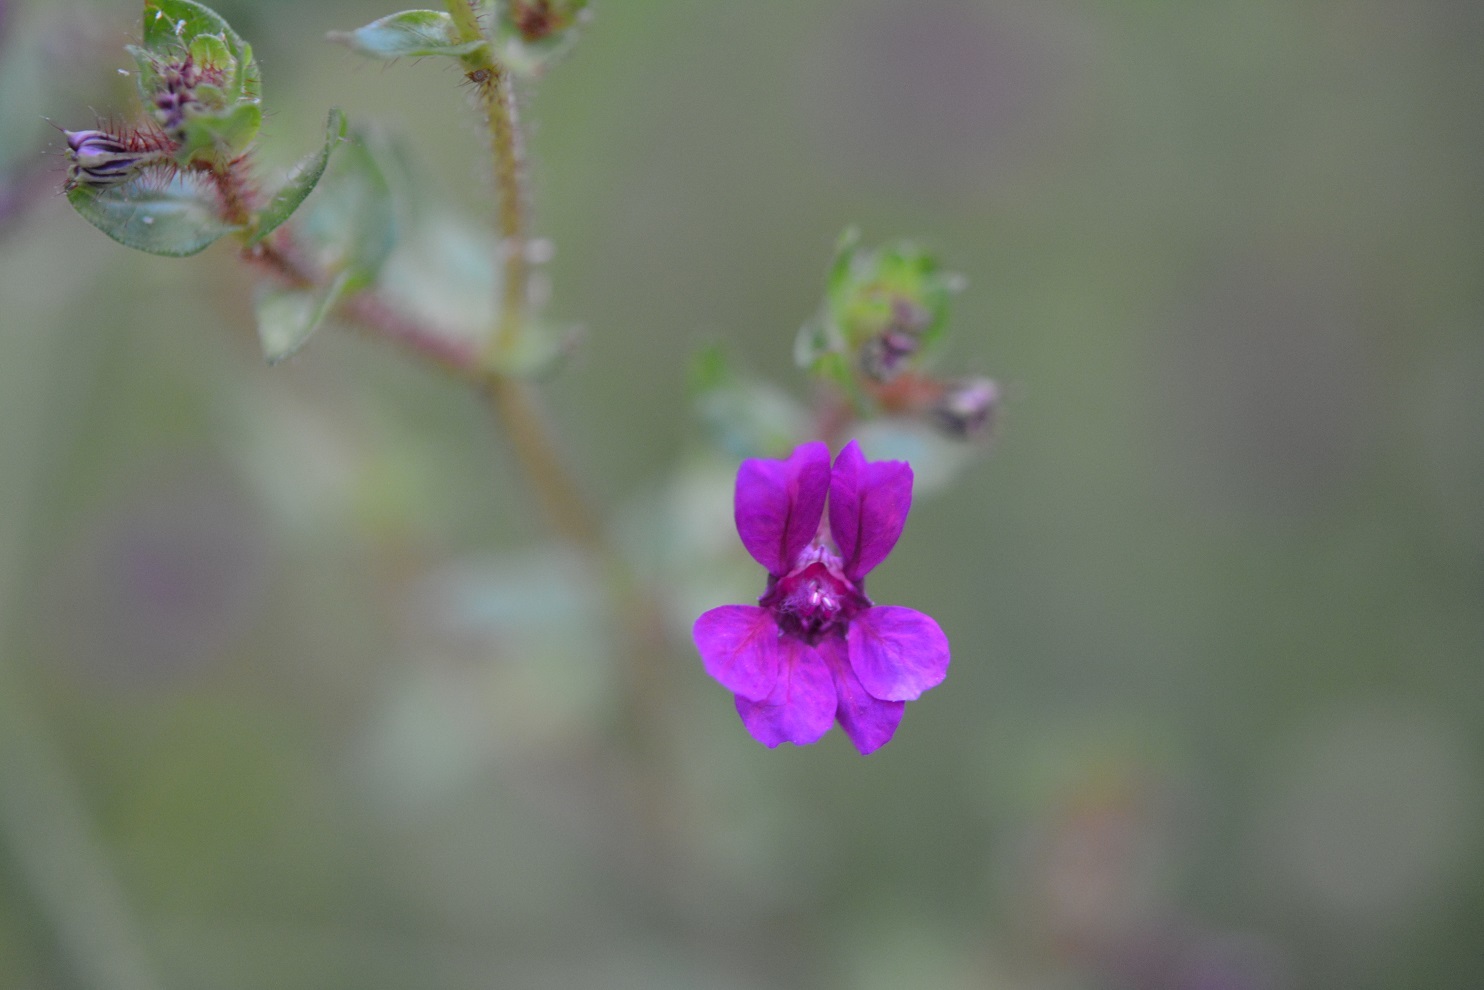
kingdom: Plantae
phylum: Tracheophyta
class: Magnoliopsida
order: Myrtales
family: Lythraceae
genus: Cuphea
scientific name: Cuphea aequipetala
